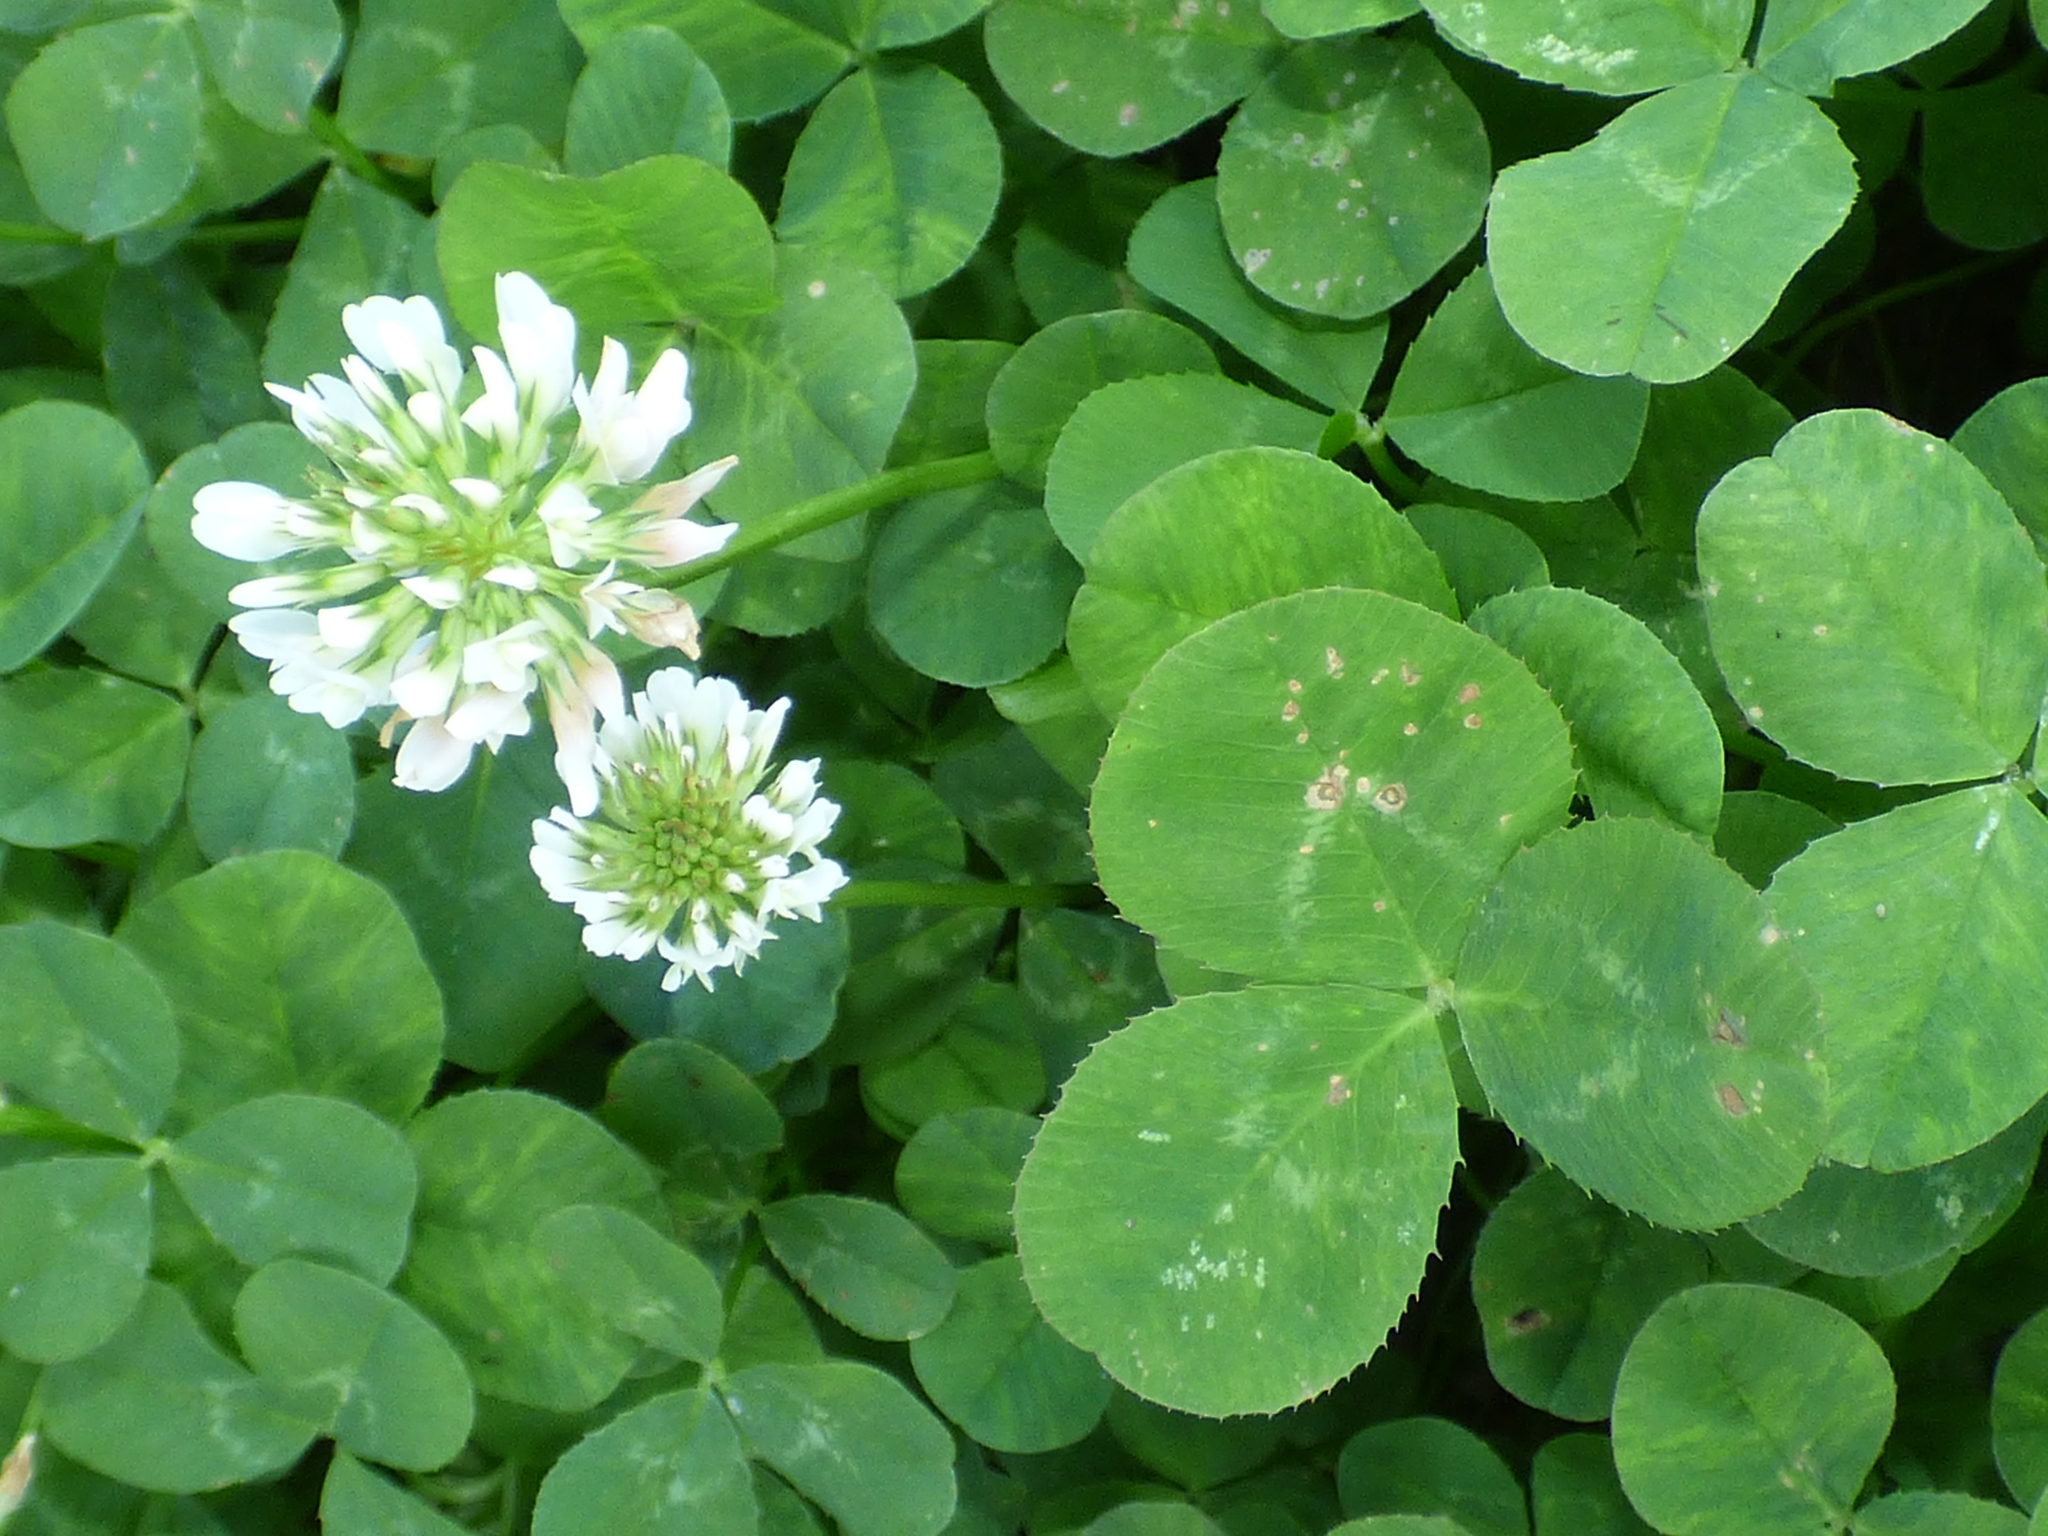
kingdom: Plantae
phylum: Tracheophyta
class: Magnoliopsida
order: Fabales
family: Fabaceae
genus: Trifolium
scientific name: Trifolium repens
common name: White clover
